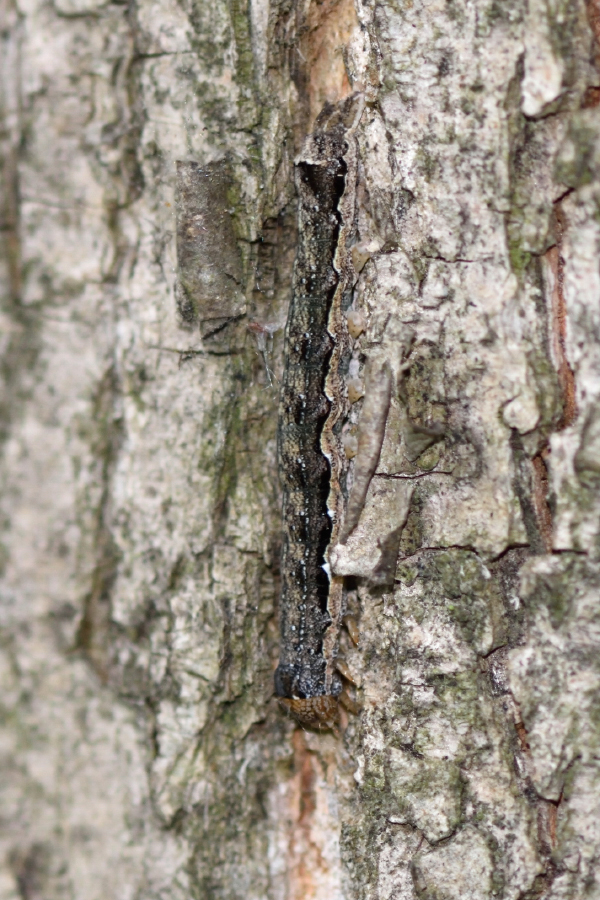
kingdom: Animalia
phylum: Arthropoda
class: Insecta
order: Lepidoptera
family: Noctuidae
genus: Anorthoa
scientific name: Anorthoa munda
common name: Twin-spotted quaker
